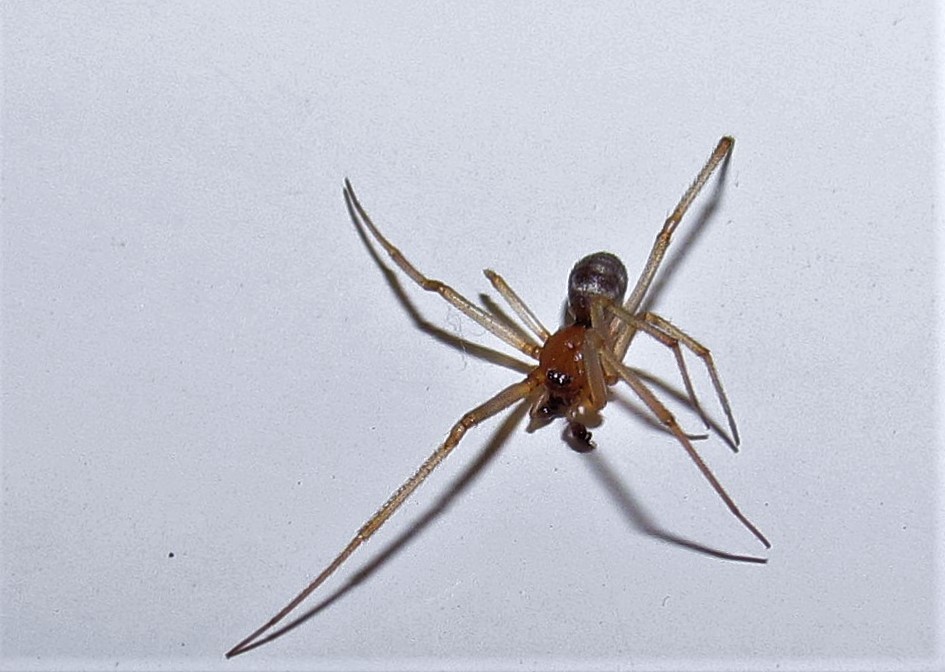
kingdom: Animalia
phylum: Arthropoda
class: Arachnida
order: Araneae
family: Theridiidae
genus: Steatoda
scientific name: Steatoda grossa
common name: False black widow
